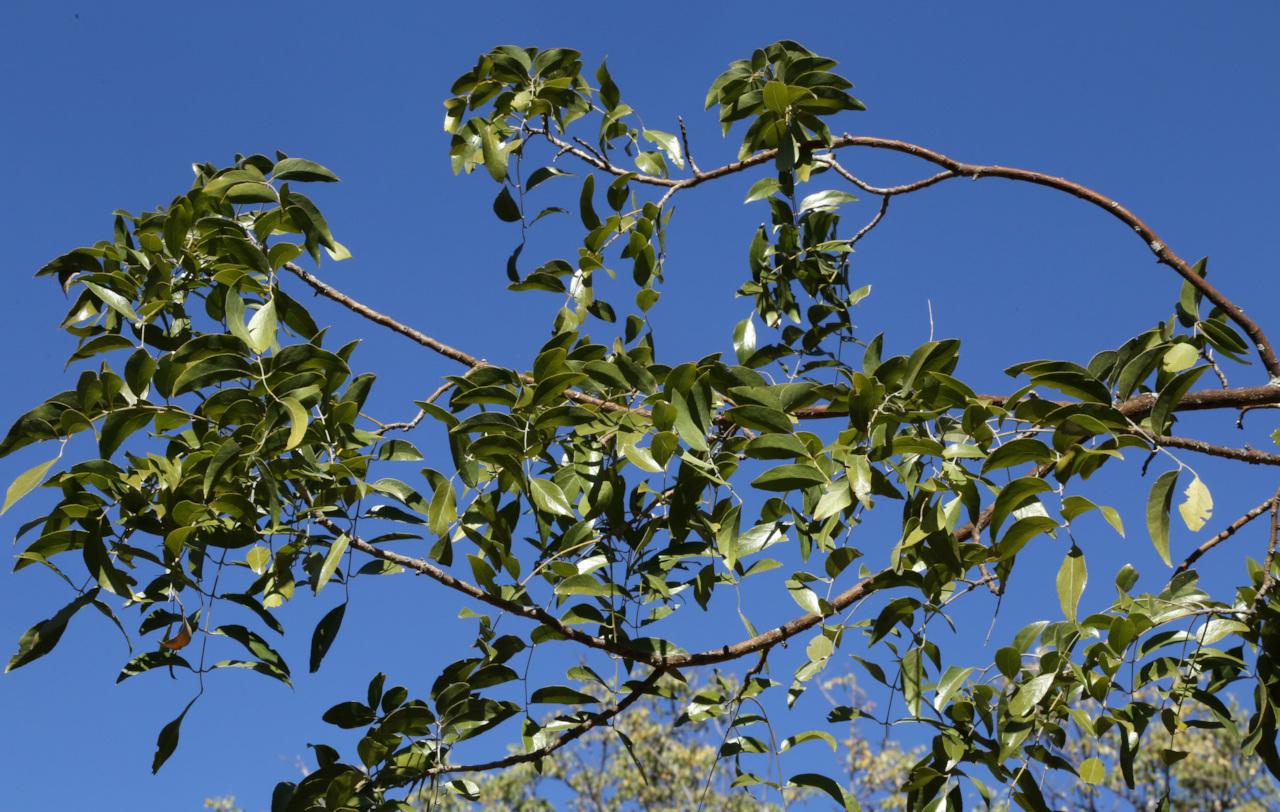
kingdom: Plantae
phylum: Tracheophyta
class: Magnoliopsida
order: Fabales
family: Fabaceae
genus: Bolusanthus
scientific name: Bolusanthus speciosus
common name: Tree wisteria
